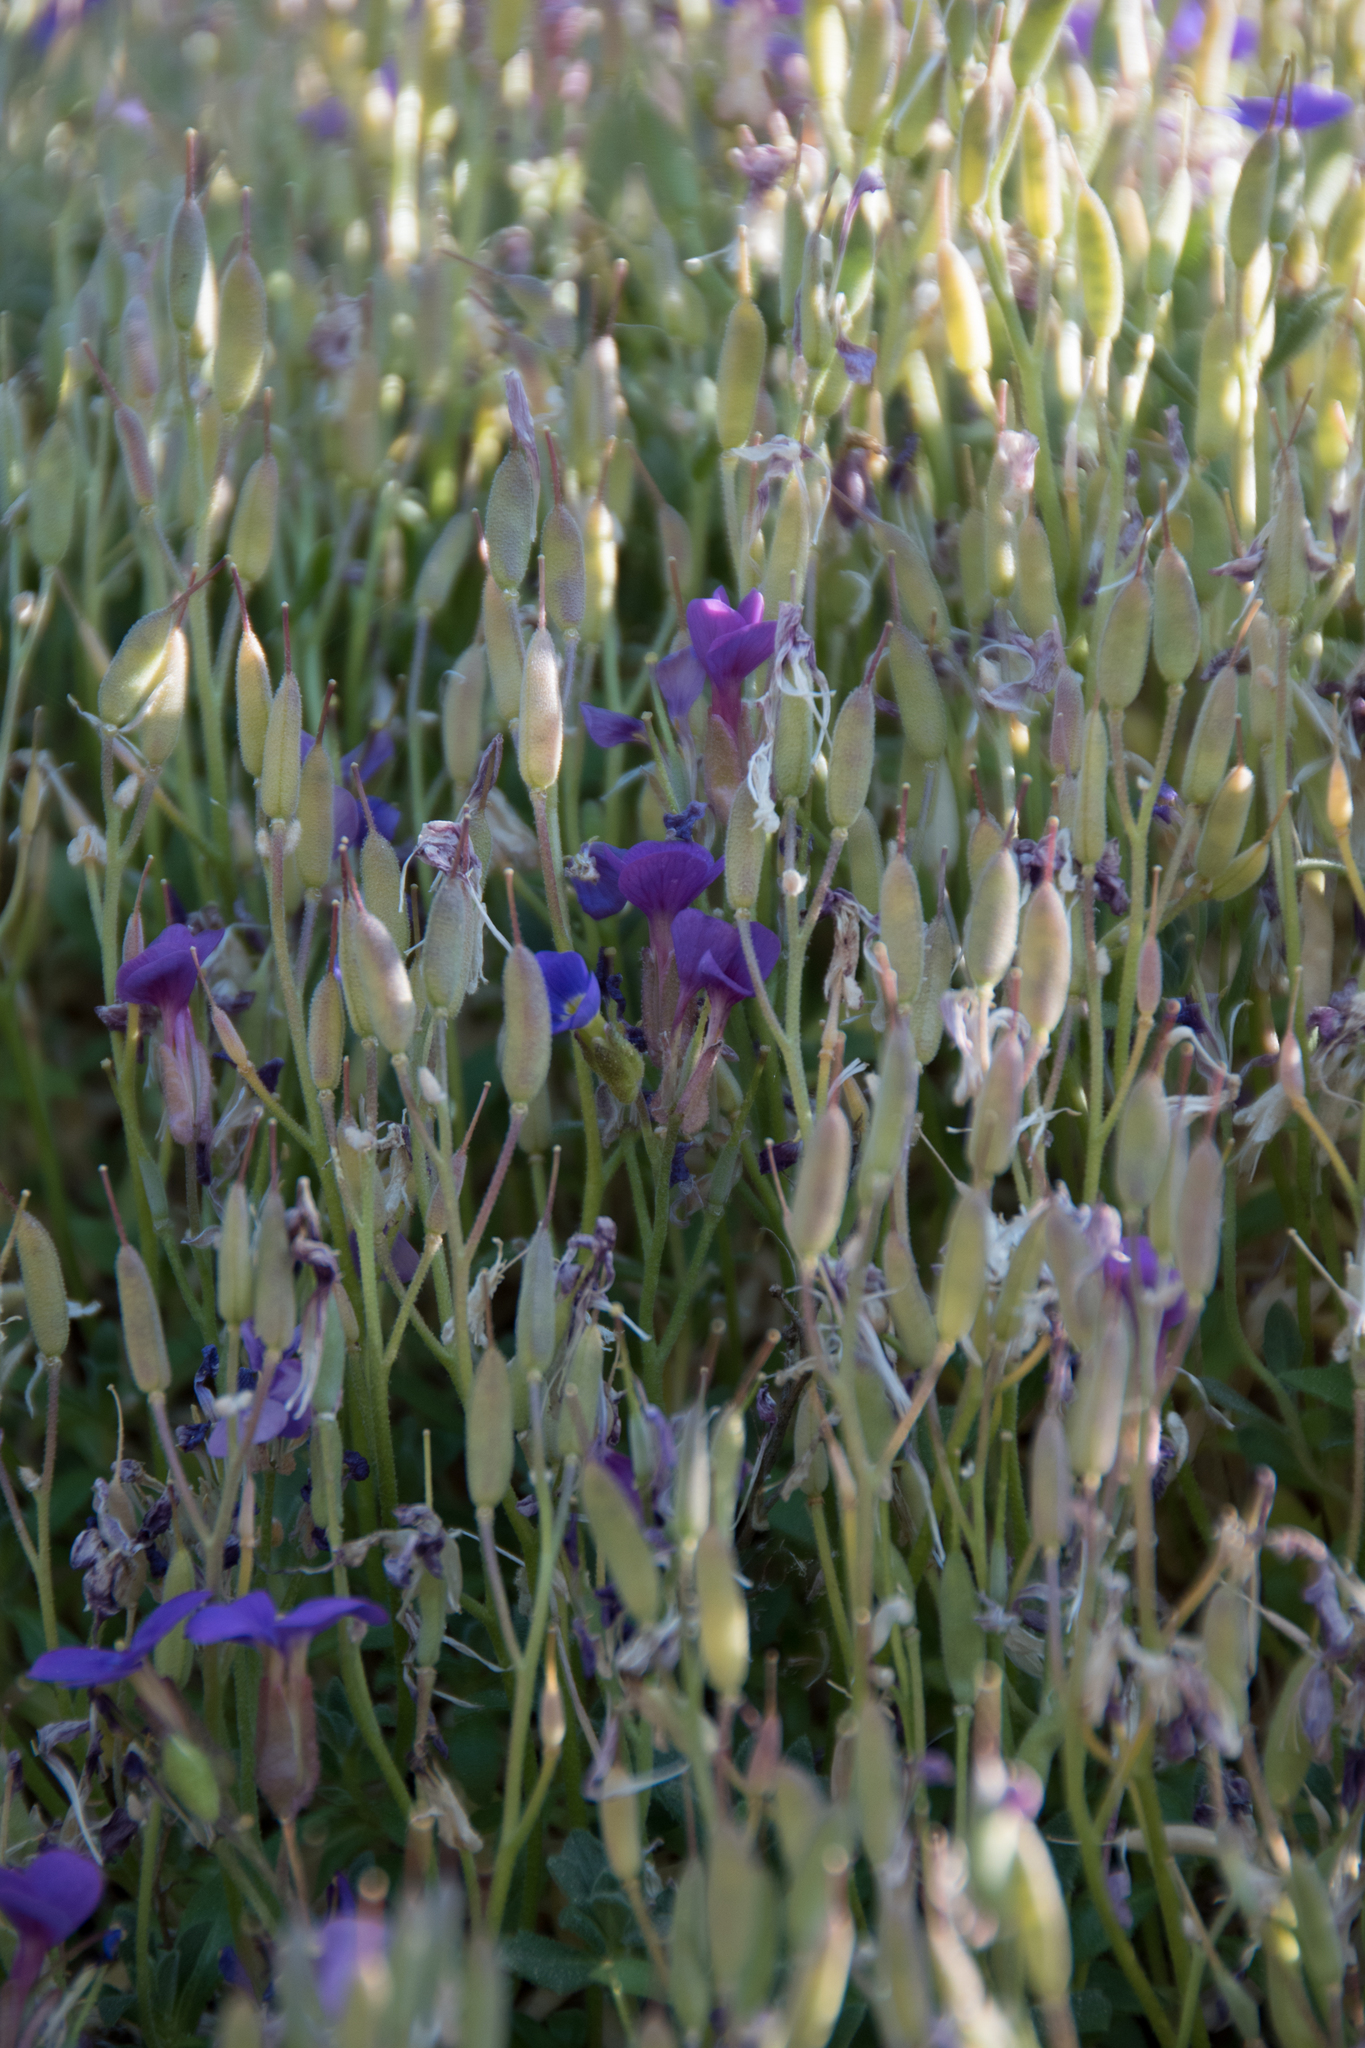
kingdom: Plantae
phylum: Tracheophyta
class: Magnoliopsida
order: Brassicales
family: Brassicaceae
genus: Aubrieta
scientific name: Aubrieta deltoidea
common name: Aubretia
